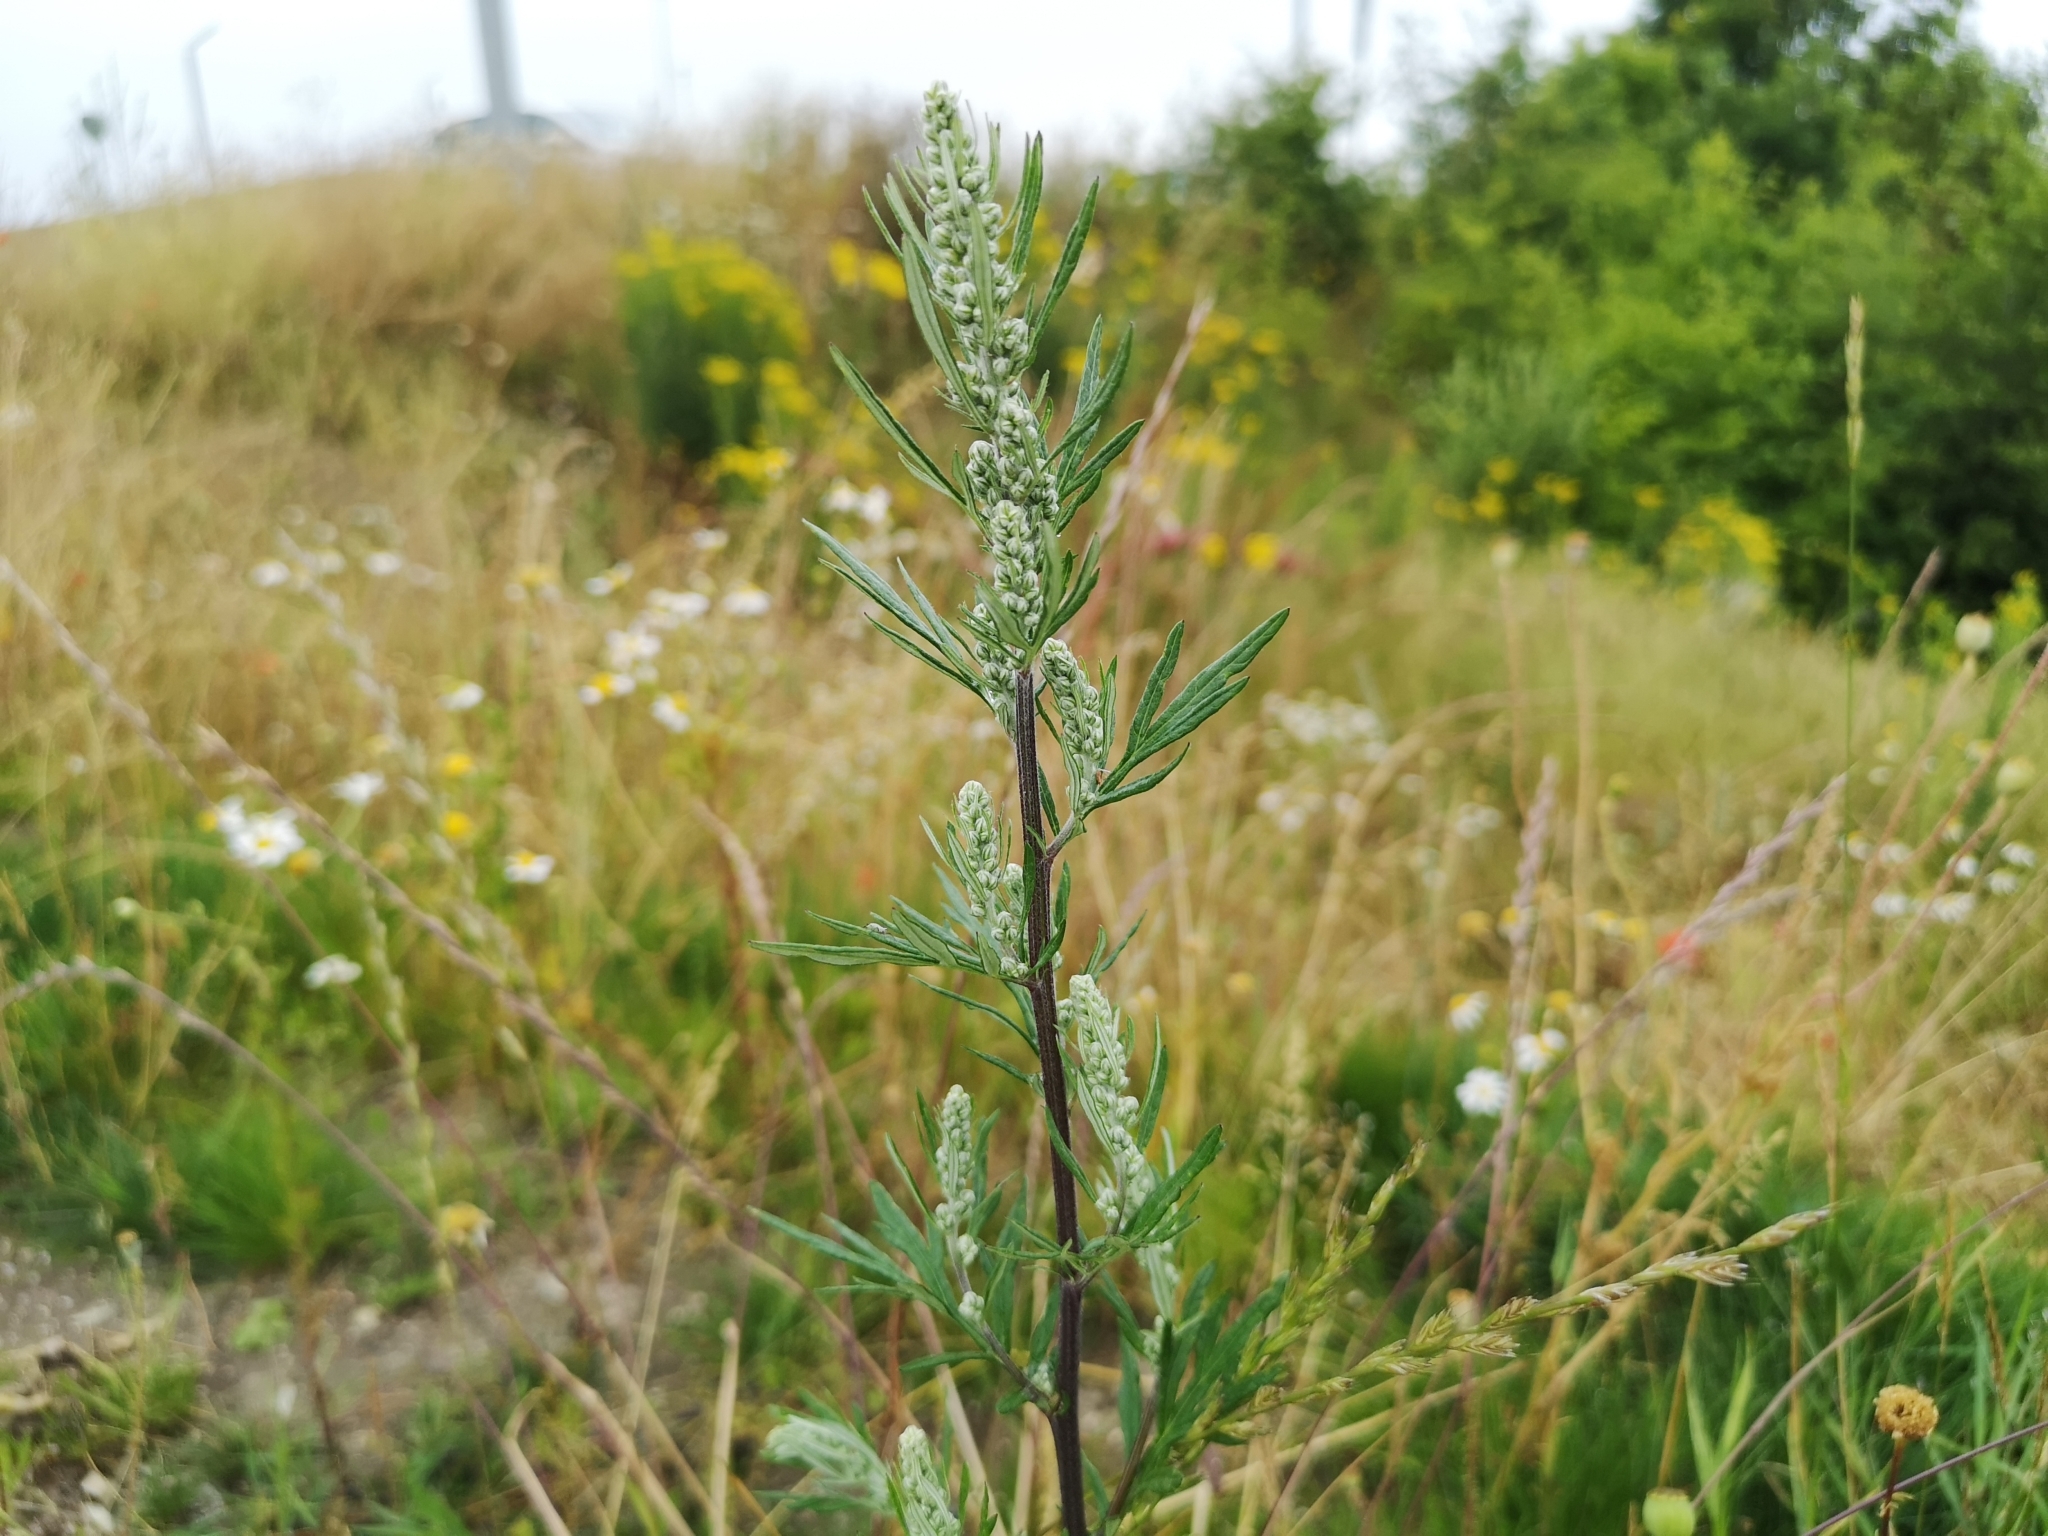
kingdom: Plantae
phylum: Tracheophyta
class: Magnoliopsida
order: Asterales
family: Asteraceae
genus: Artemisia
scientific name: Artemisia vulgaris
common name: Mugwort
